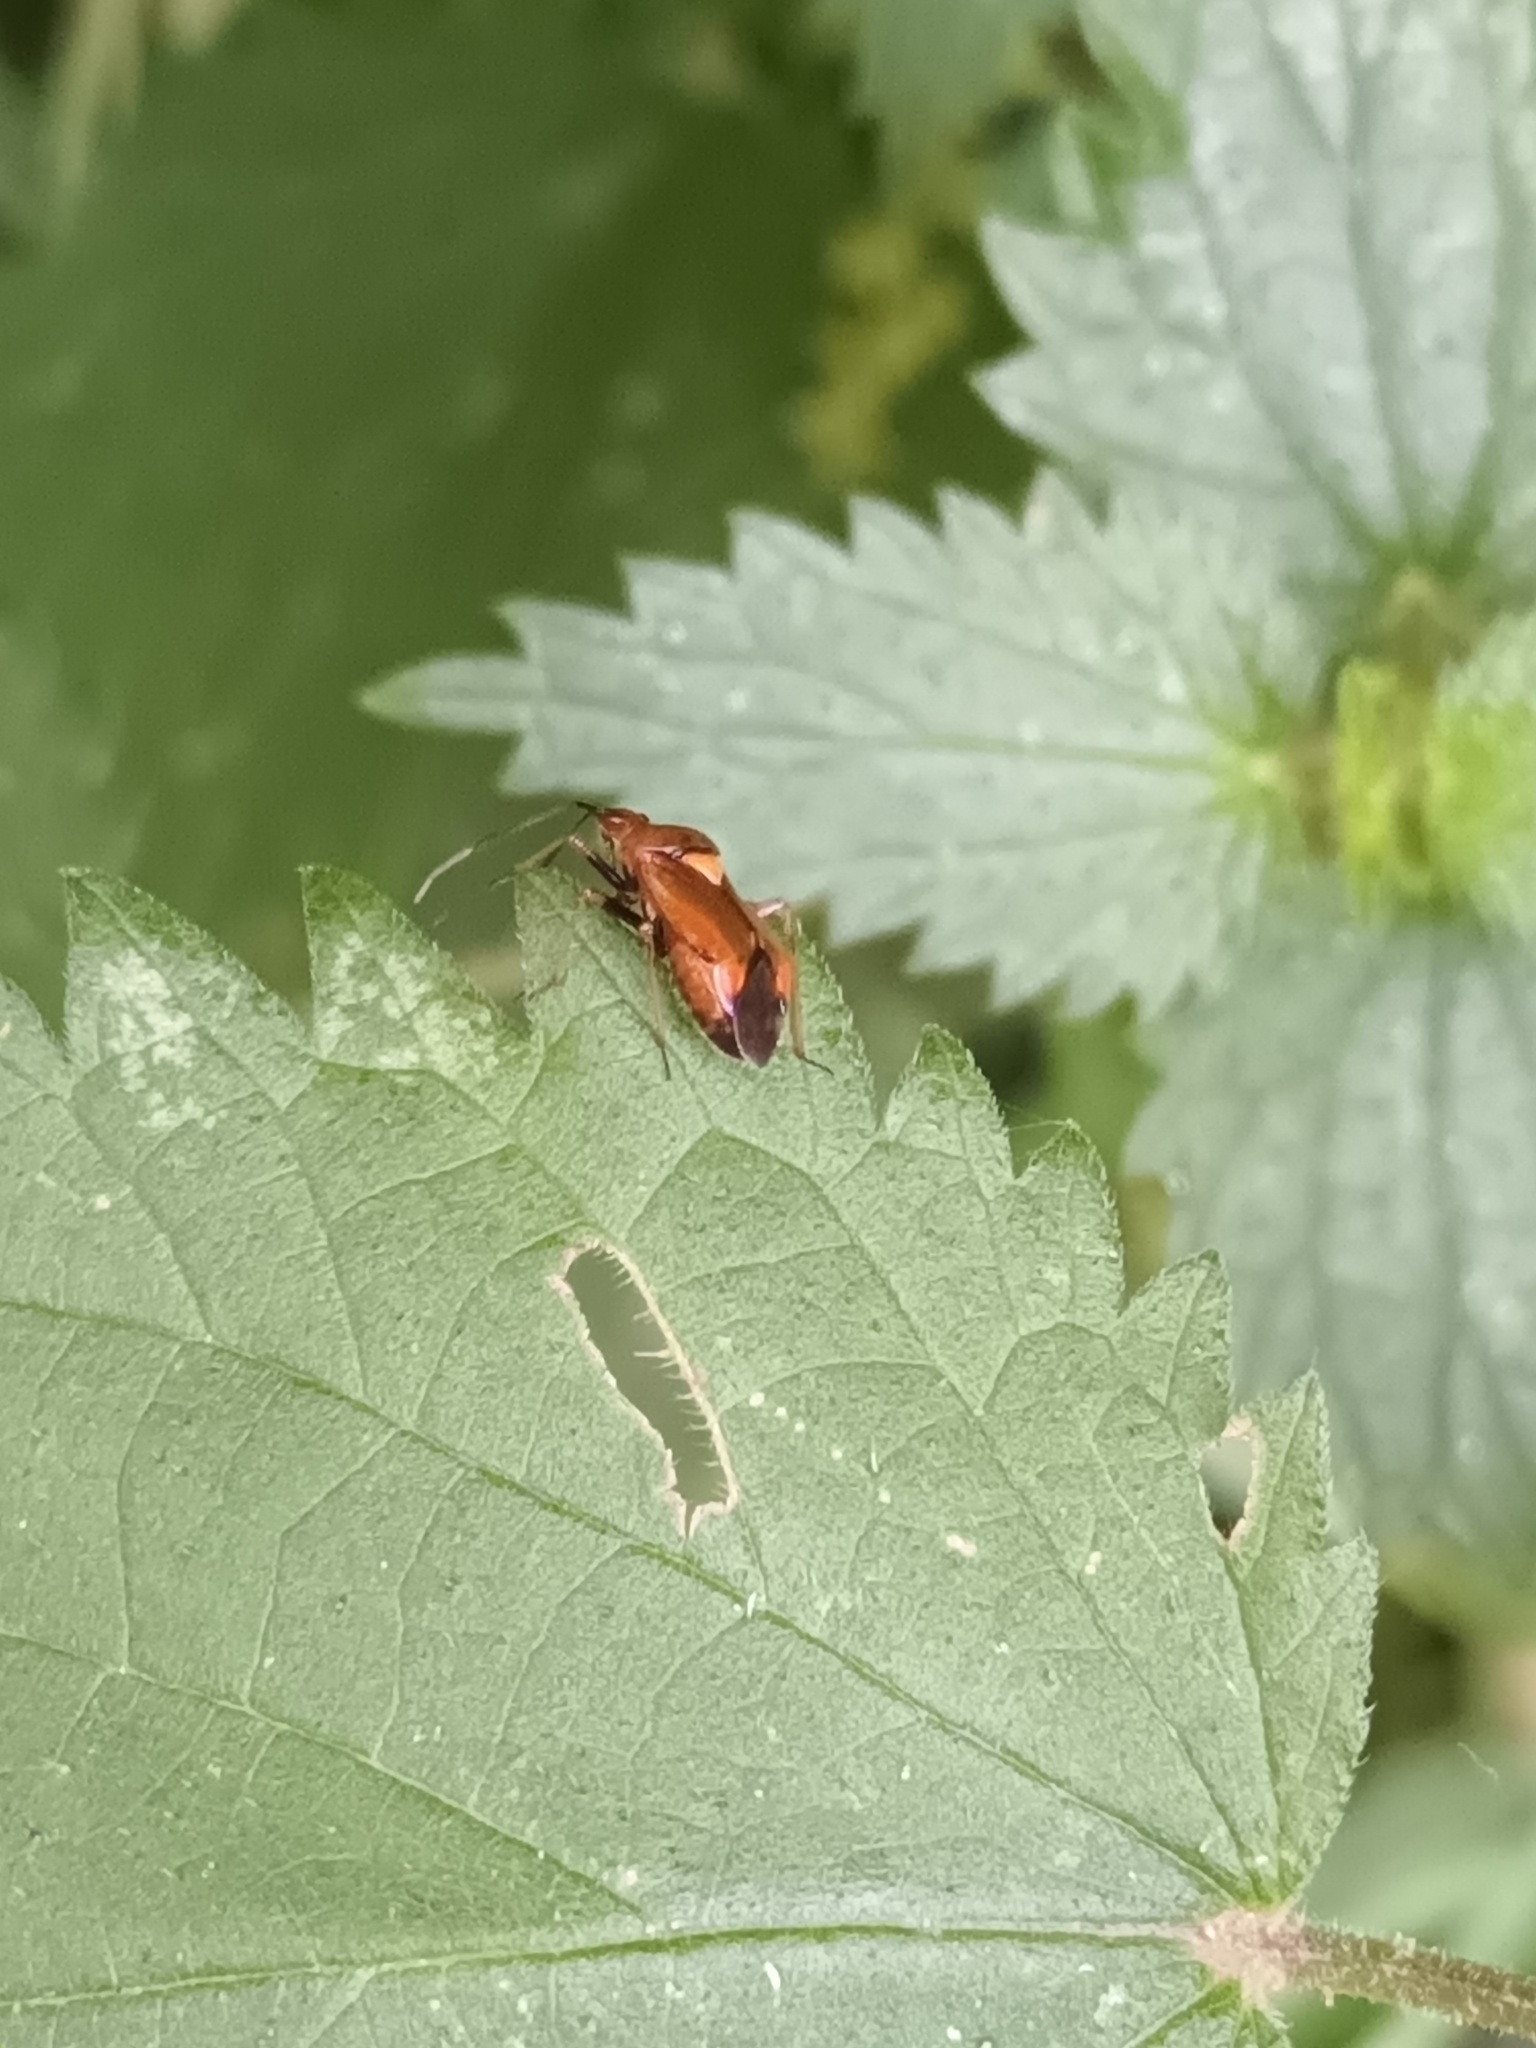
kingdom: Animalia
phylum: Arthropoda
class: Insecta
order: Hemiptera
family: Miridae
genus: Deraeocoris
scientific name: Deraeocoris ruber
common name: Plant bug
